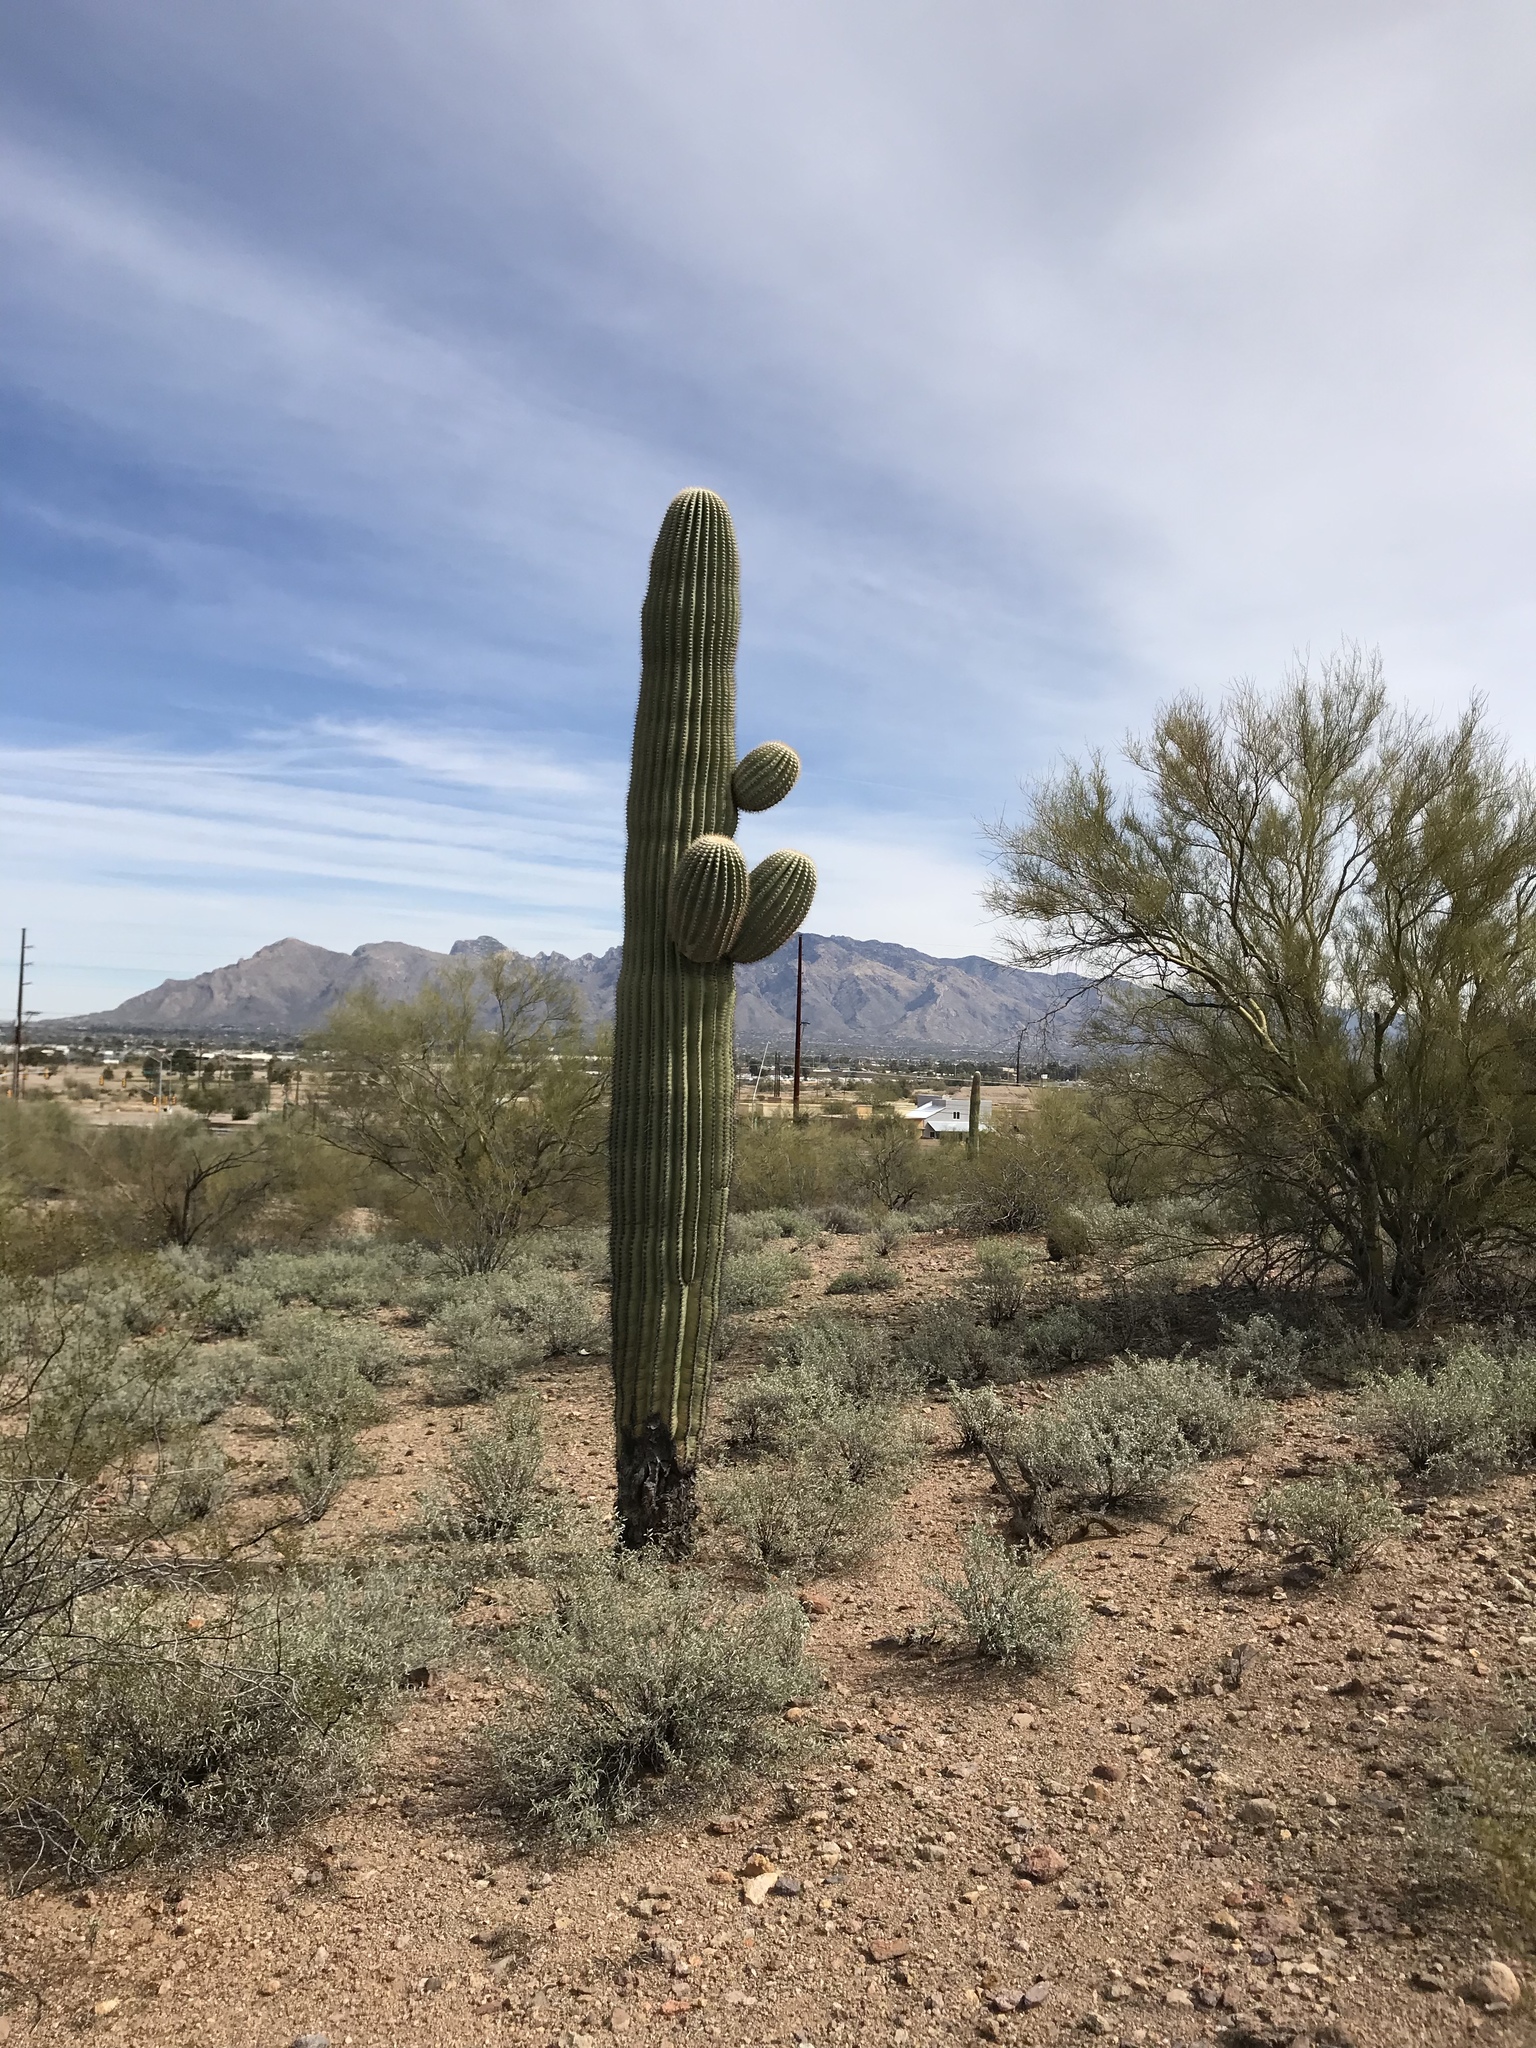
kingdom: Plantae
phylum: Tracheophyta
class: Magnoliopsida
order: Caryophyllales
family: Cactaceae
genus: Carnegiea
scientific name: Carnegiea gigantea
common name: Saguaro
